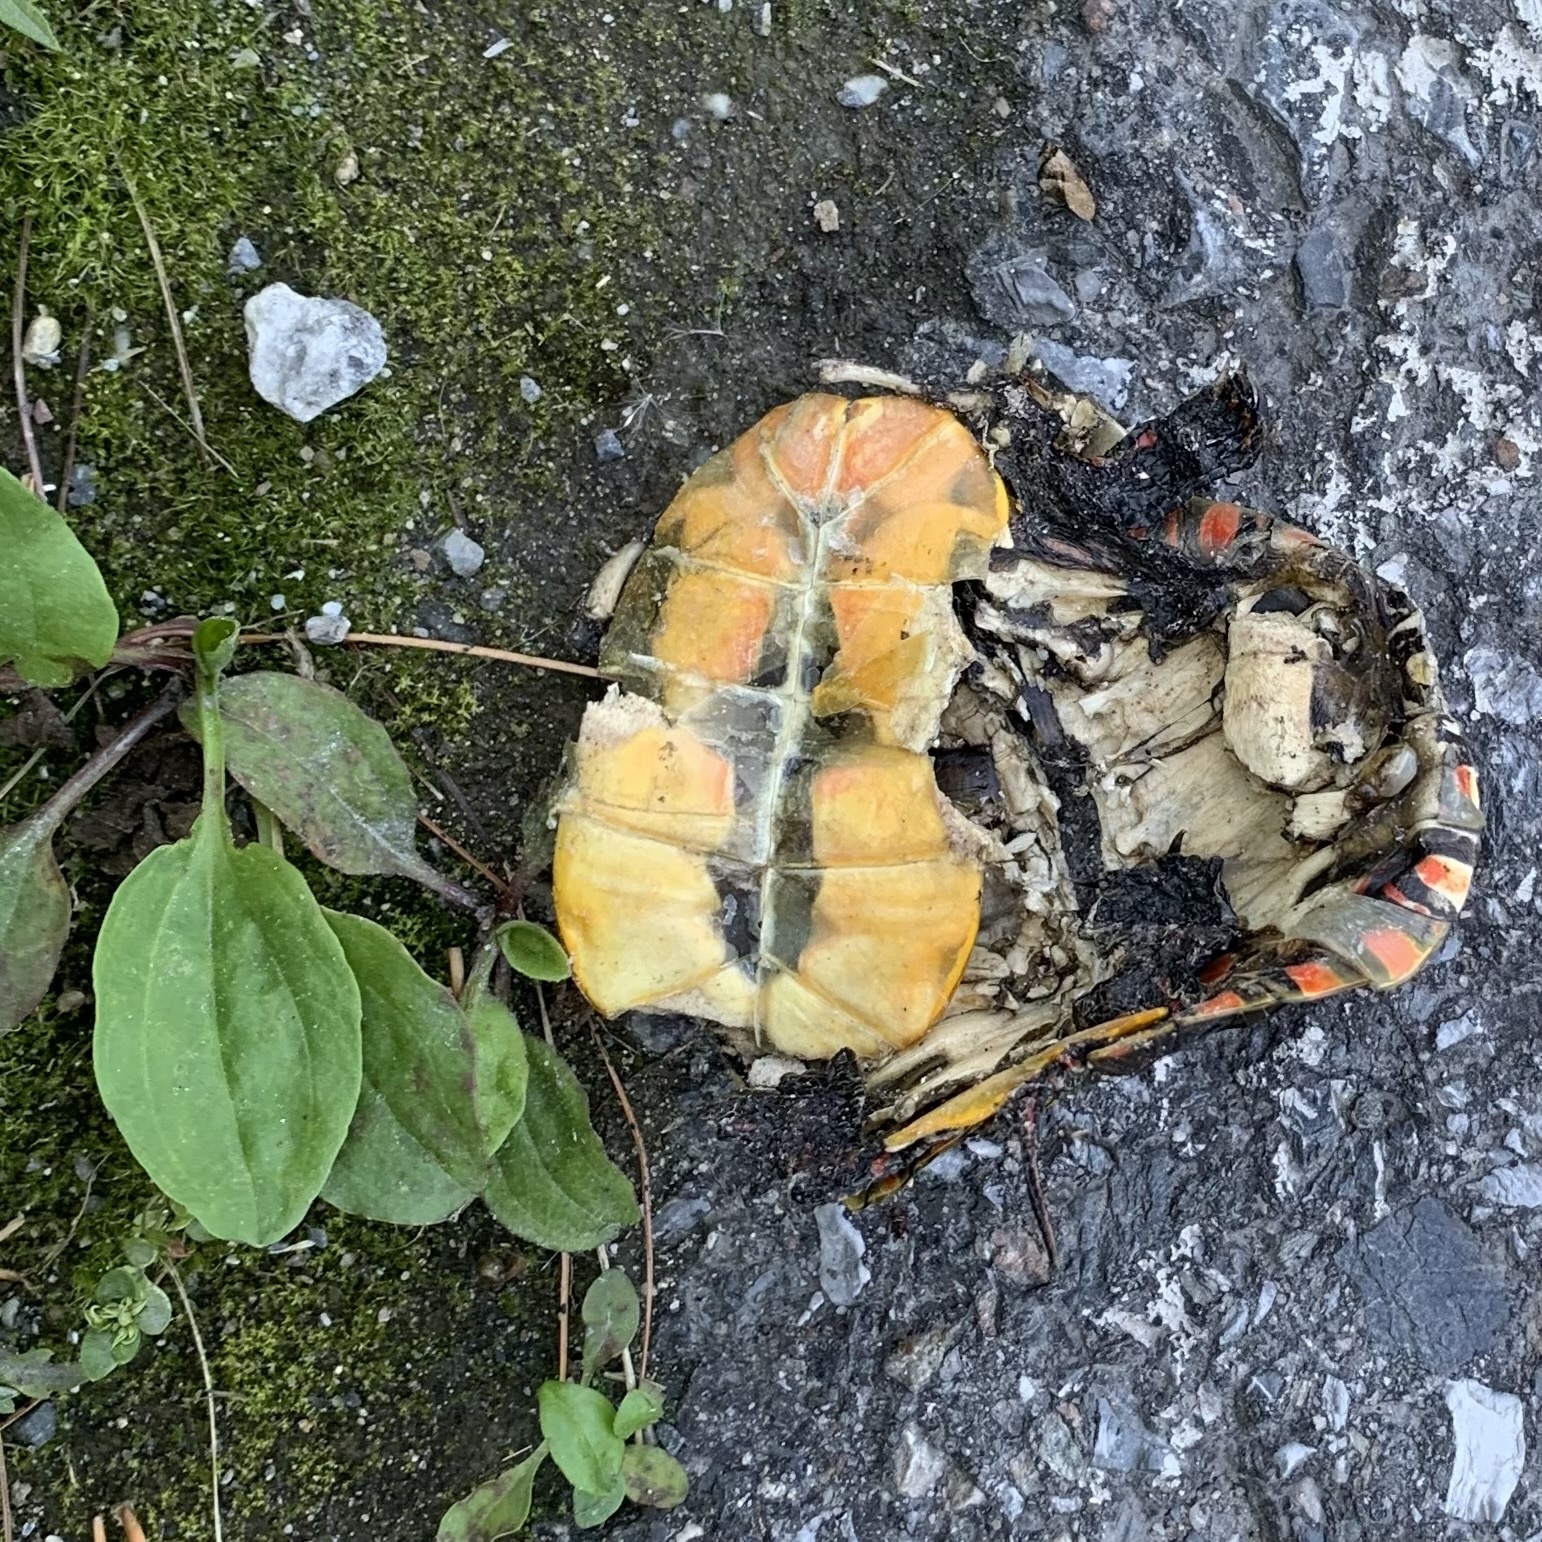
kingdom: Animalia
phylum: Chordata
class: Testudines
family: Emydidae
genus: Chrysemys
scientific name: Chrysemys picta
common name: Painted turtle
